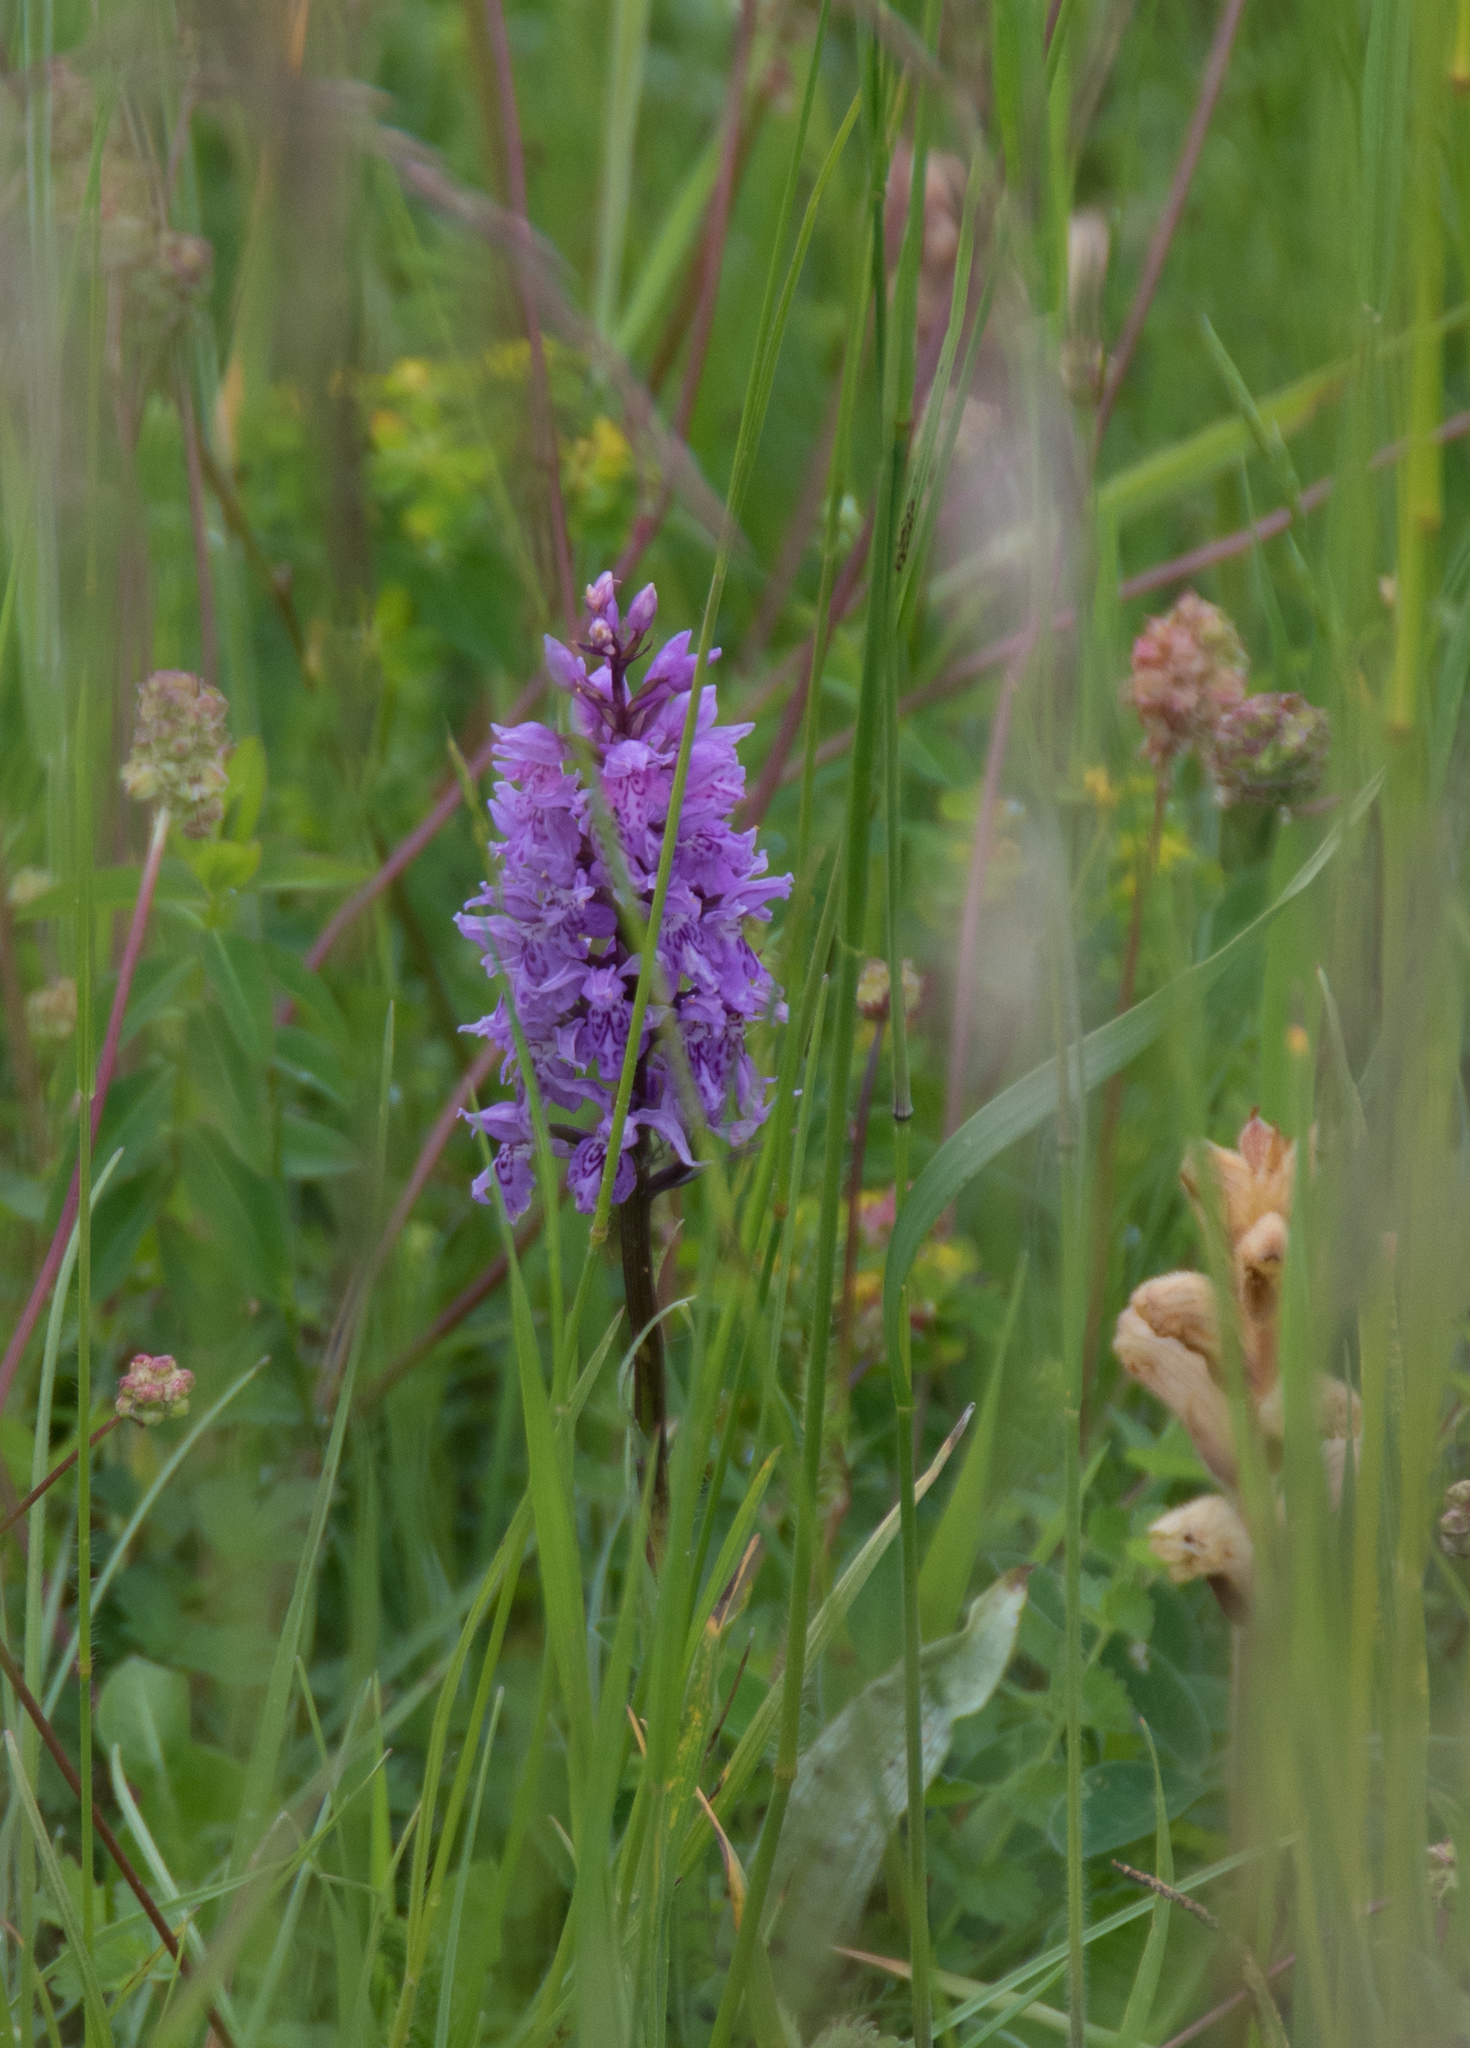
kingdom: Plantae
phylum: Tracheophyta
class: Liliopsida
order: Asparagales
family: Orchidaceae
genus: Dactylorhiza
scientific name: Dactylorhiza maculata
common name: Heath spotted-orchid
